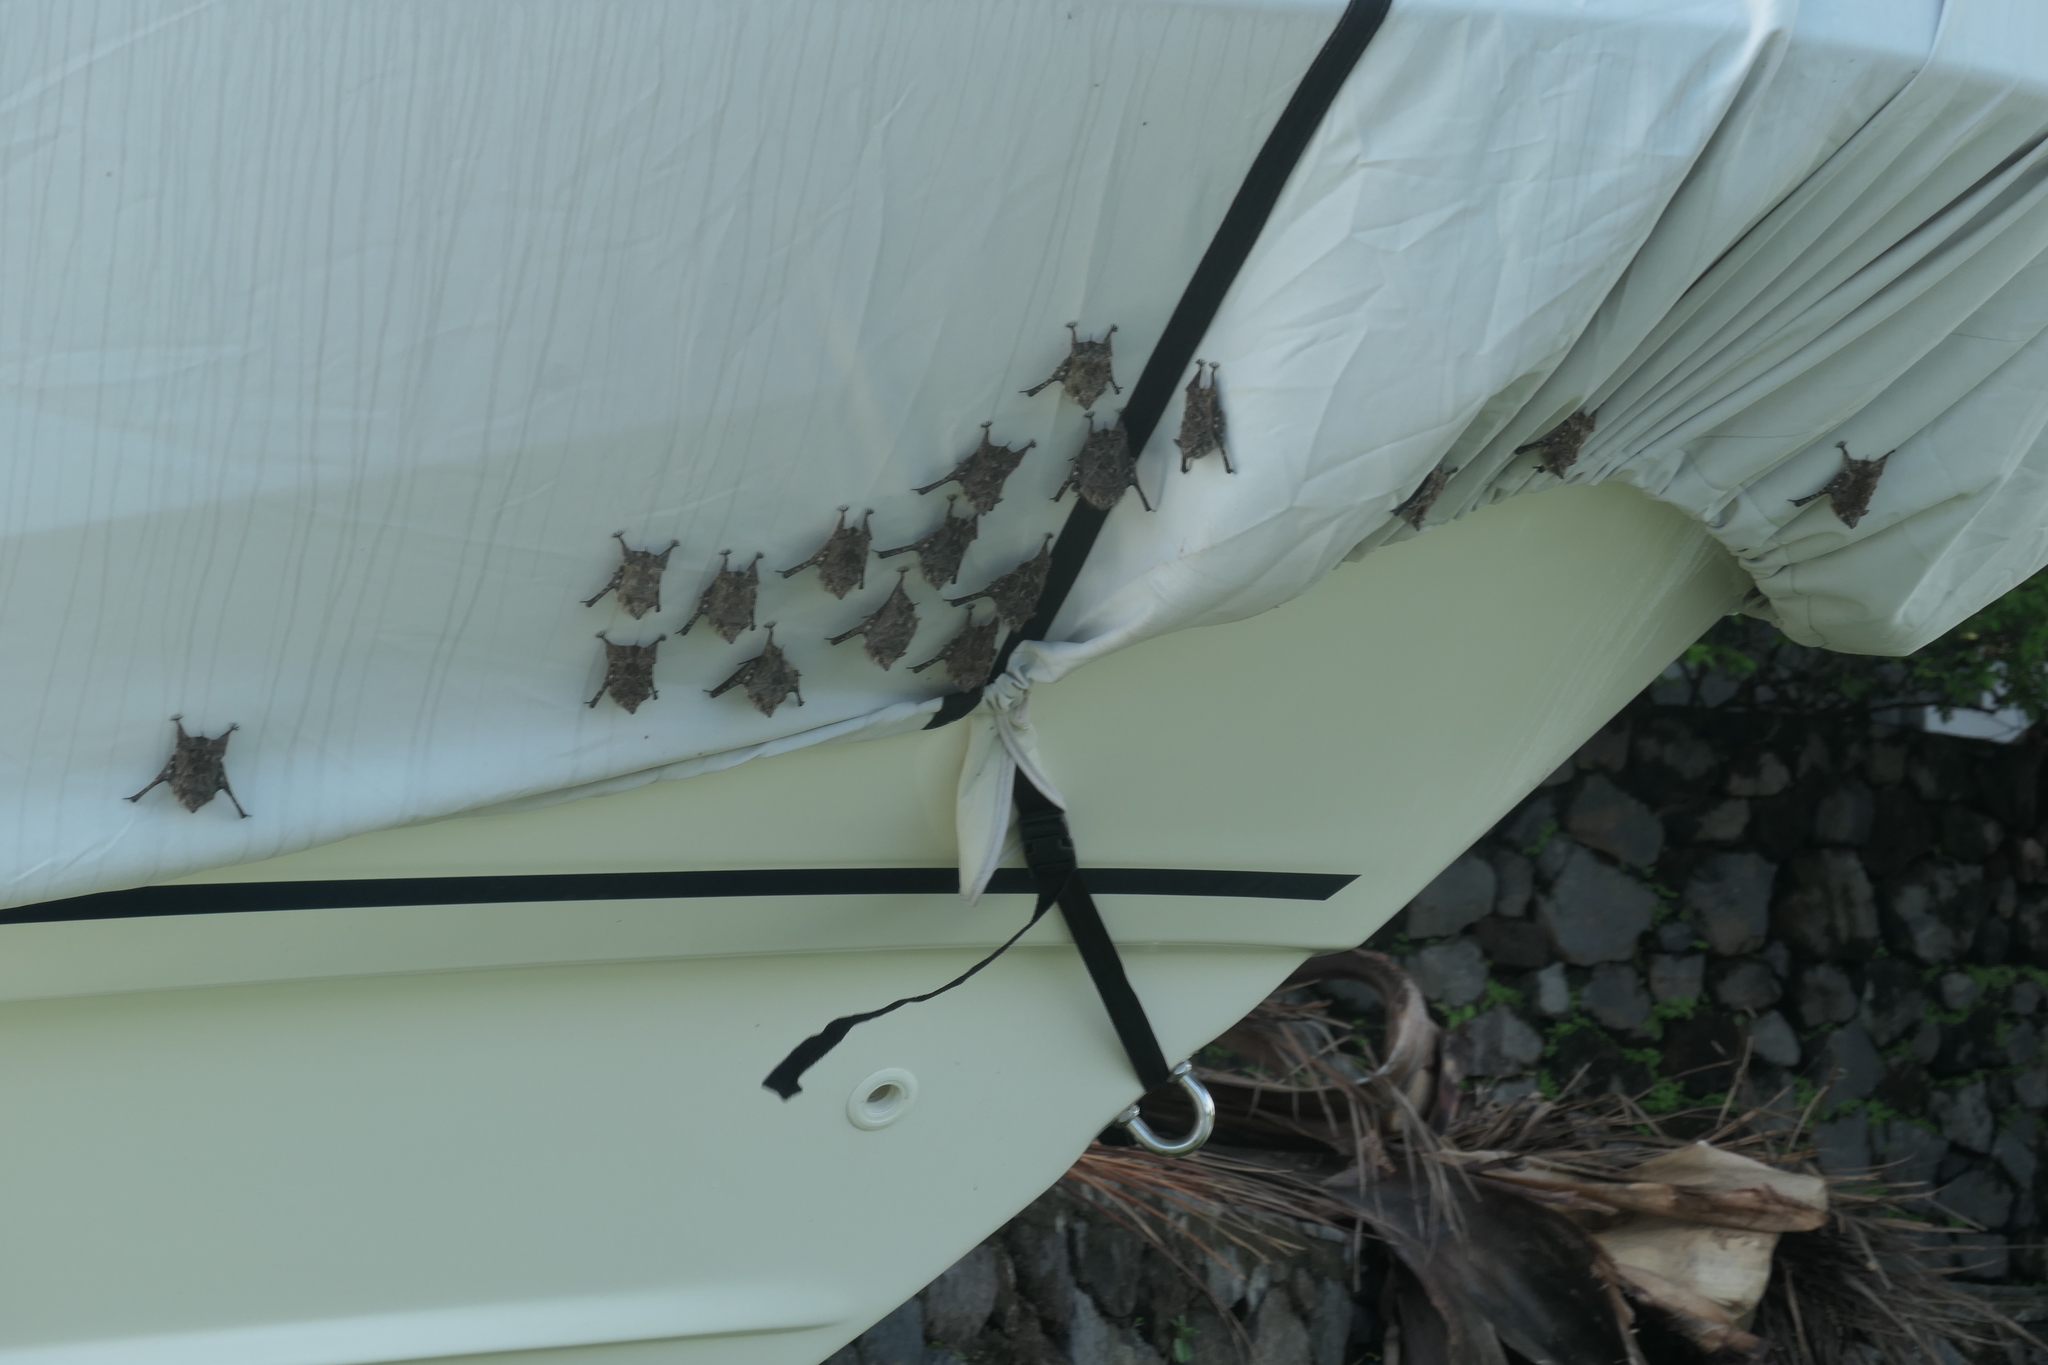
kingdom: Animalia
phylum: Chordata
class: Mammalia
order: Chiroptera
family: Emballonuridae
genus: Rhynchonycteris
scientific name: Rhynchonycteris naso
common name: Proboscis bat
